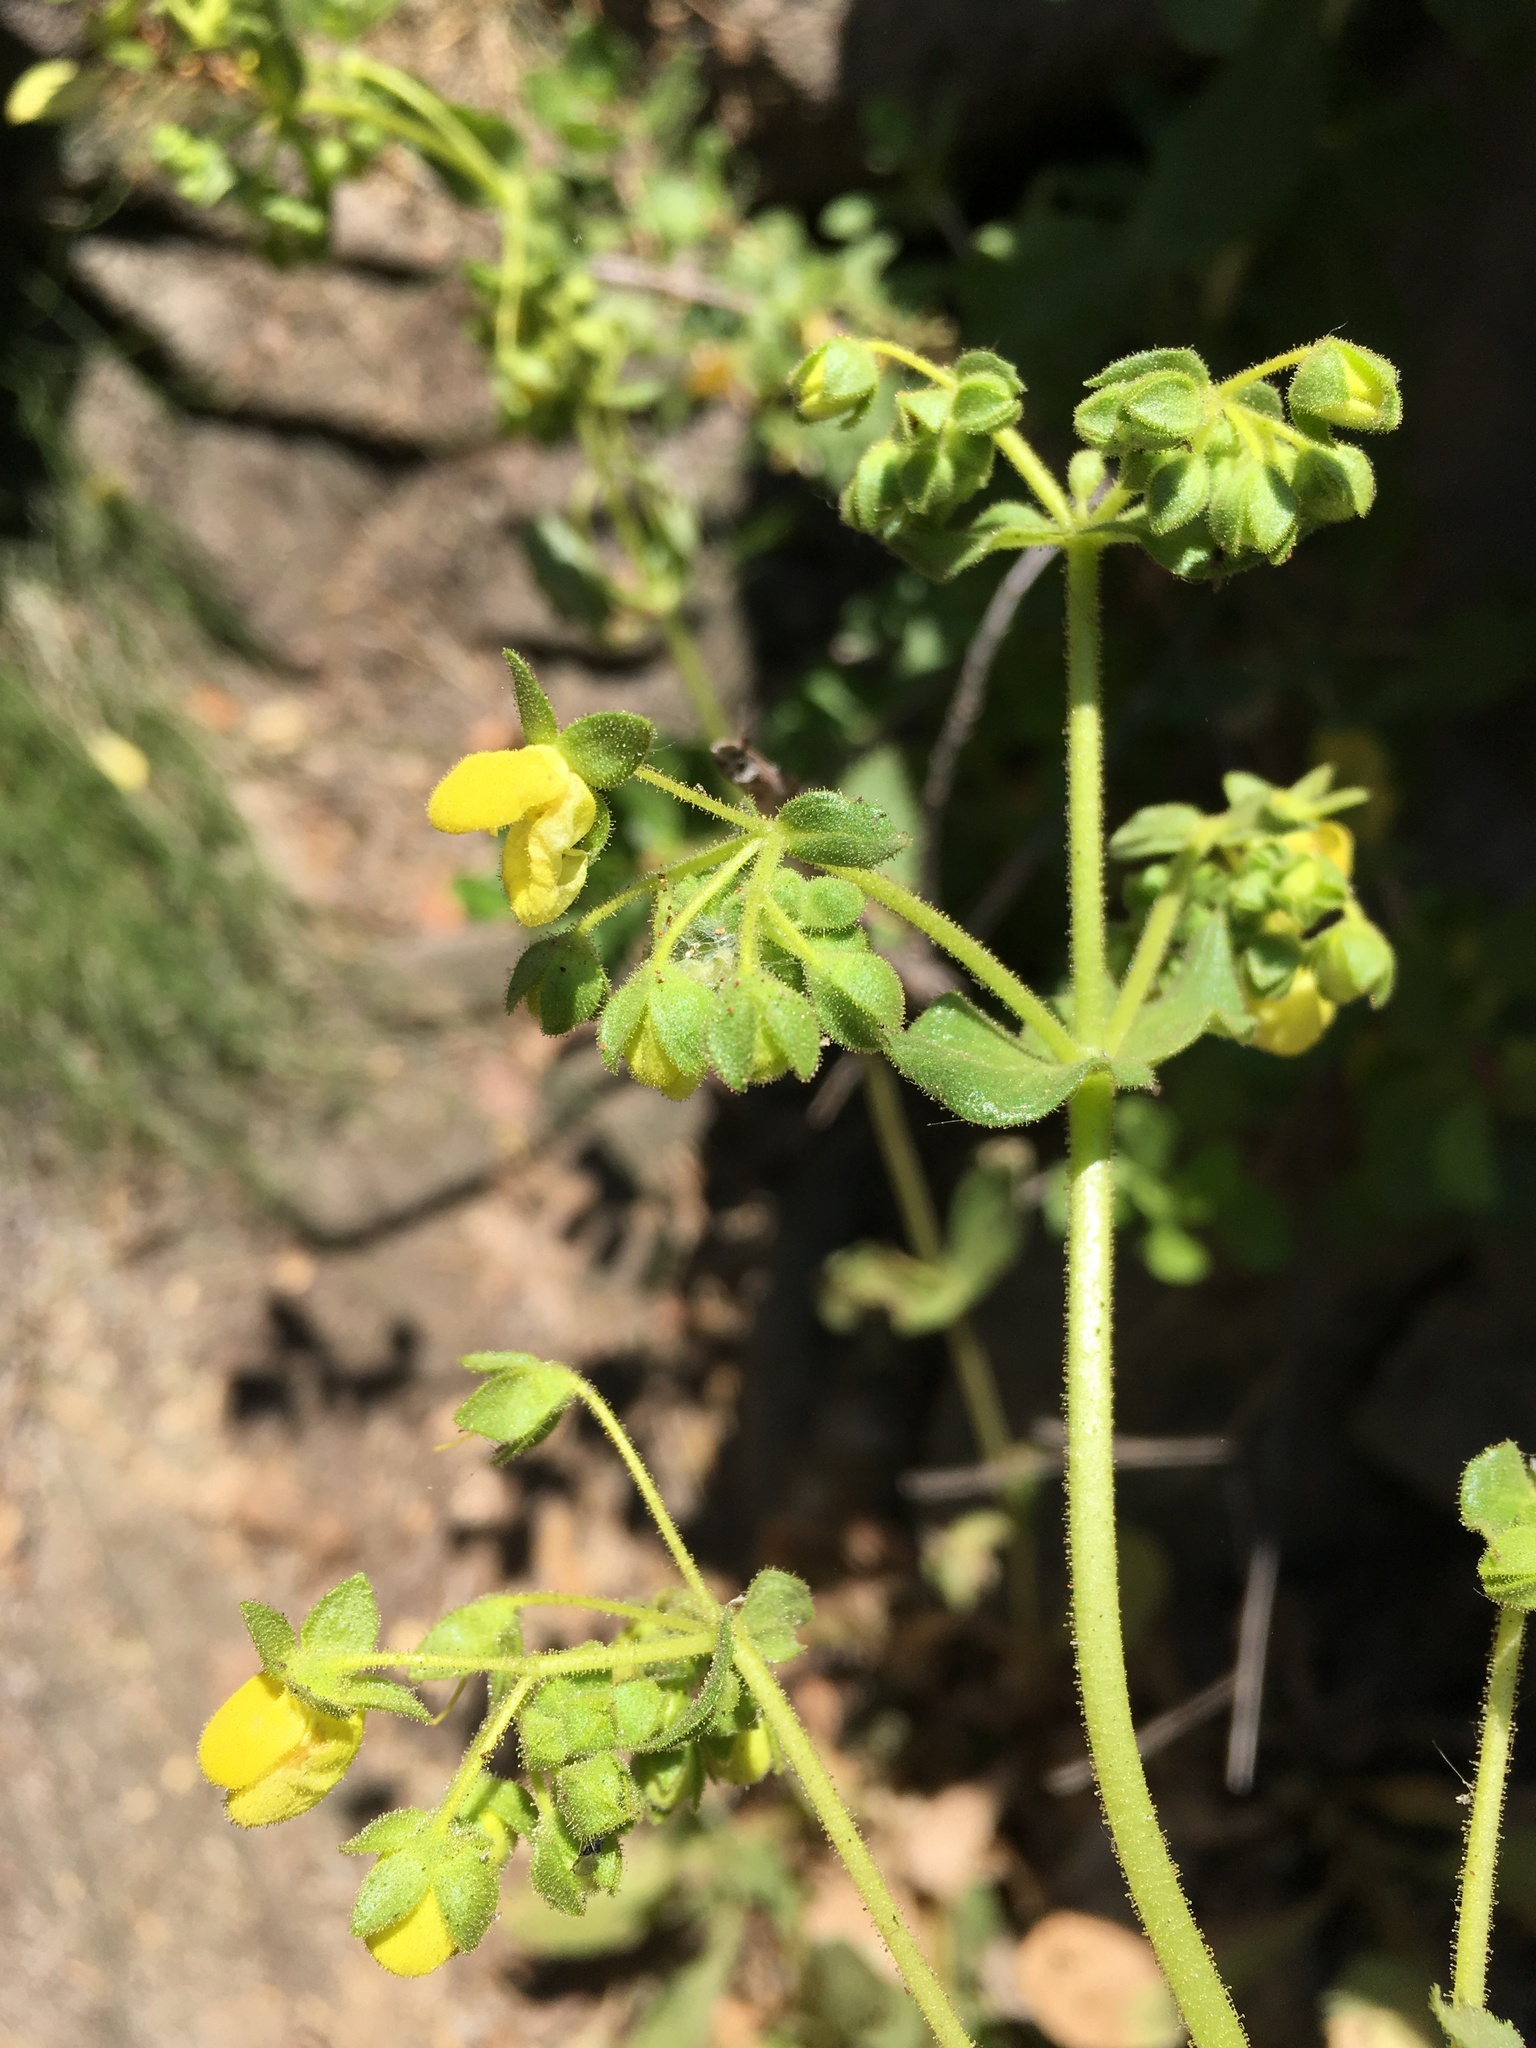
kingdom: Plantae
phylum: Tracheophyta
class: Magnoliopsida
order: Lamiales
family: Calceolariaceae
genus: Calceolaria
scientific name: Calceolaria petioalaris
